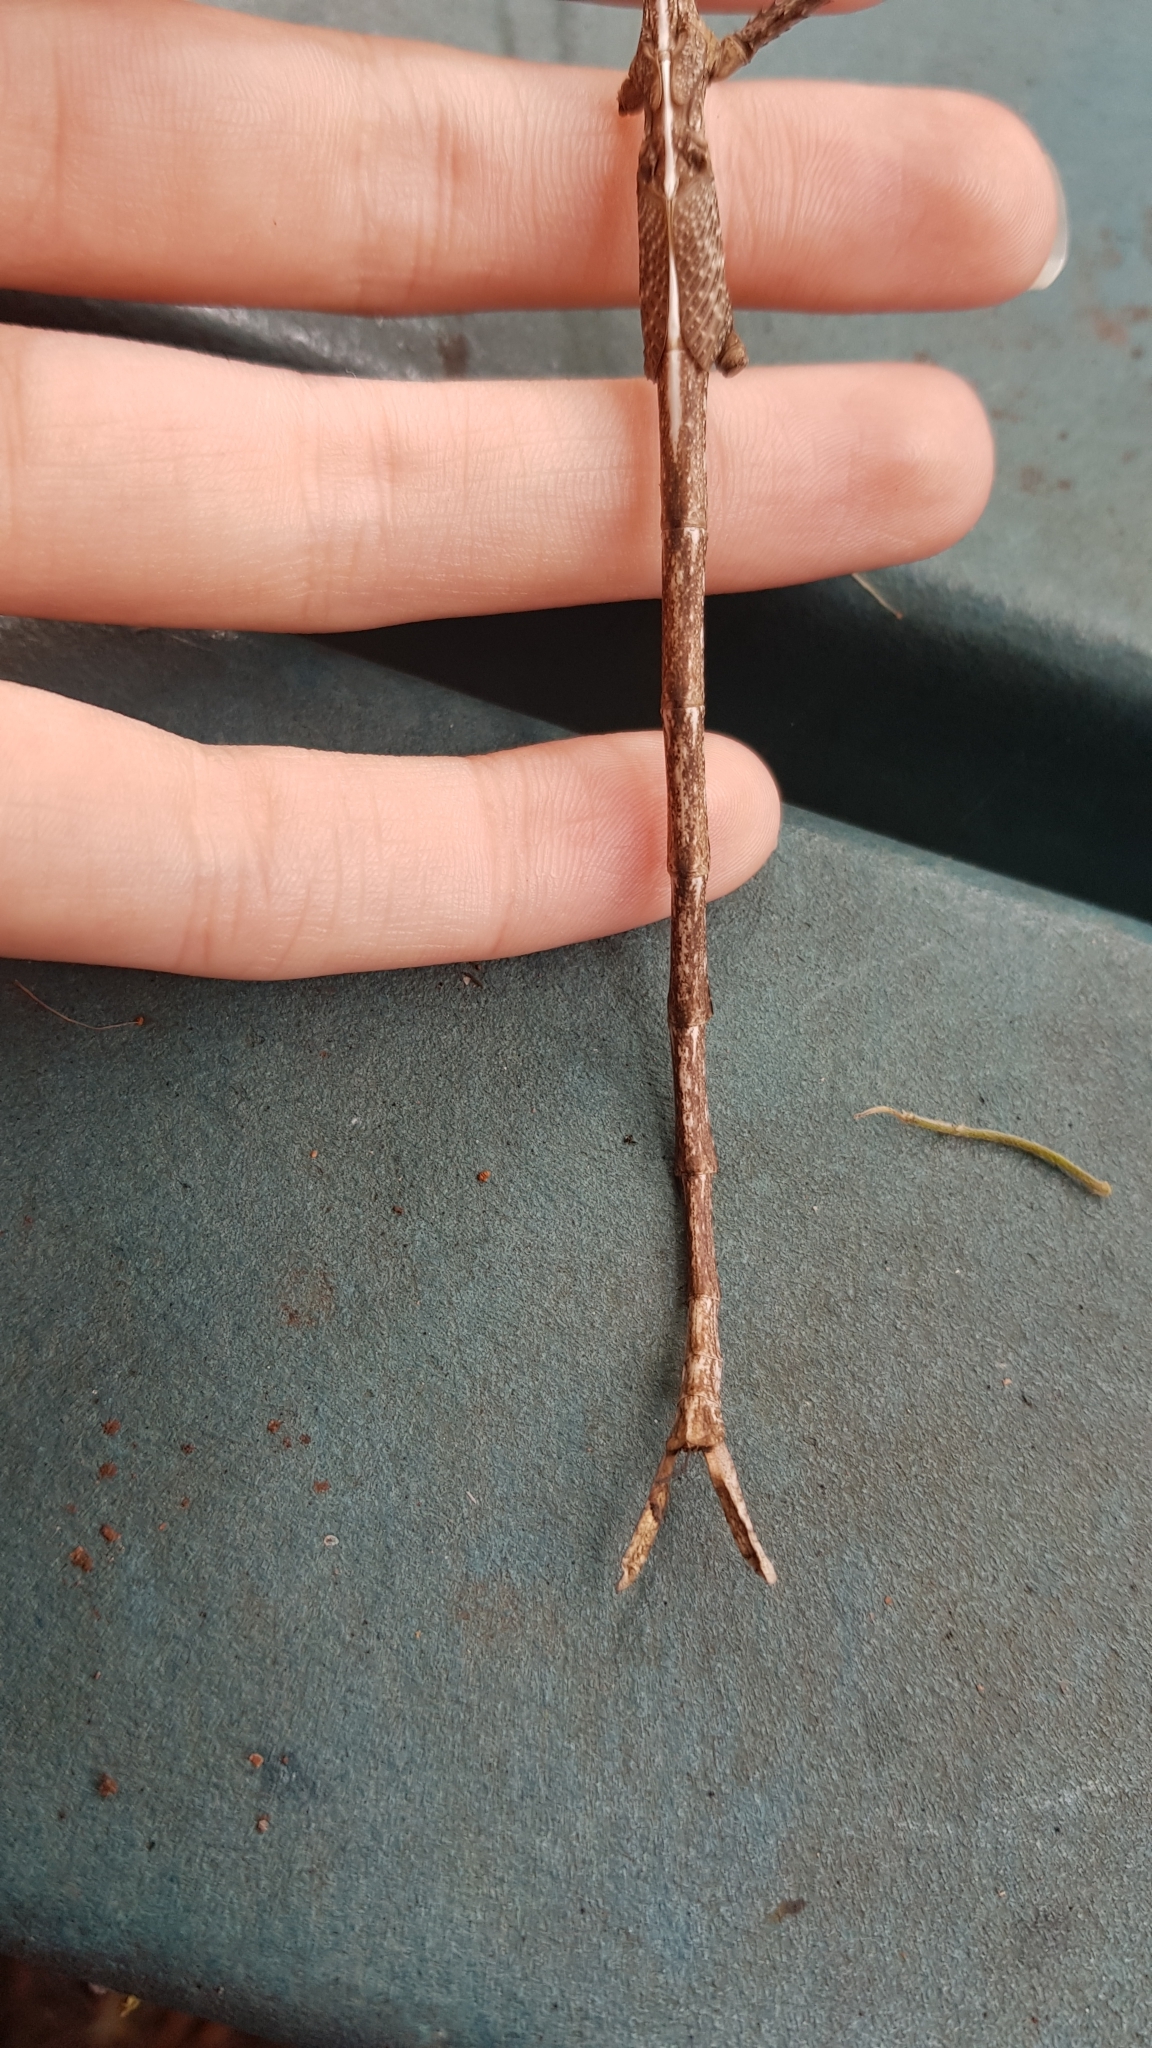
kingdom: Animalia
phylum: Arthropoda
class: Insecta
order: Phasmida
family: Phasmatidae
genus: Acrophylla
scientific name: Acrophylla titan
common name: Titan stick insect
